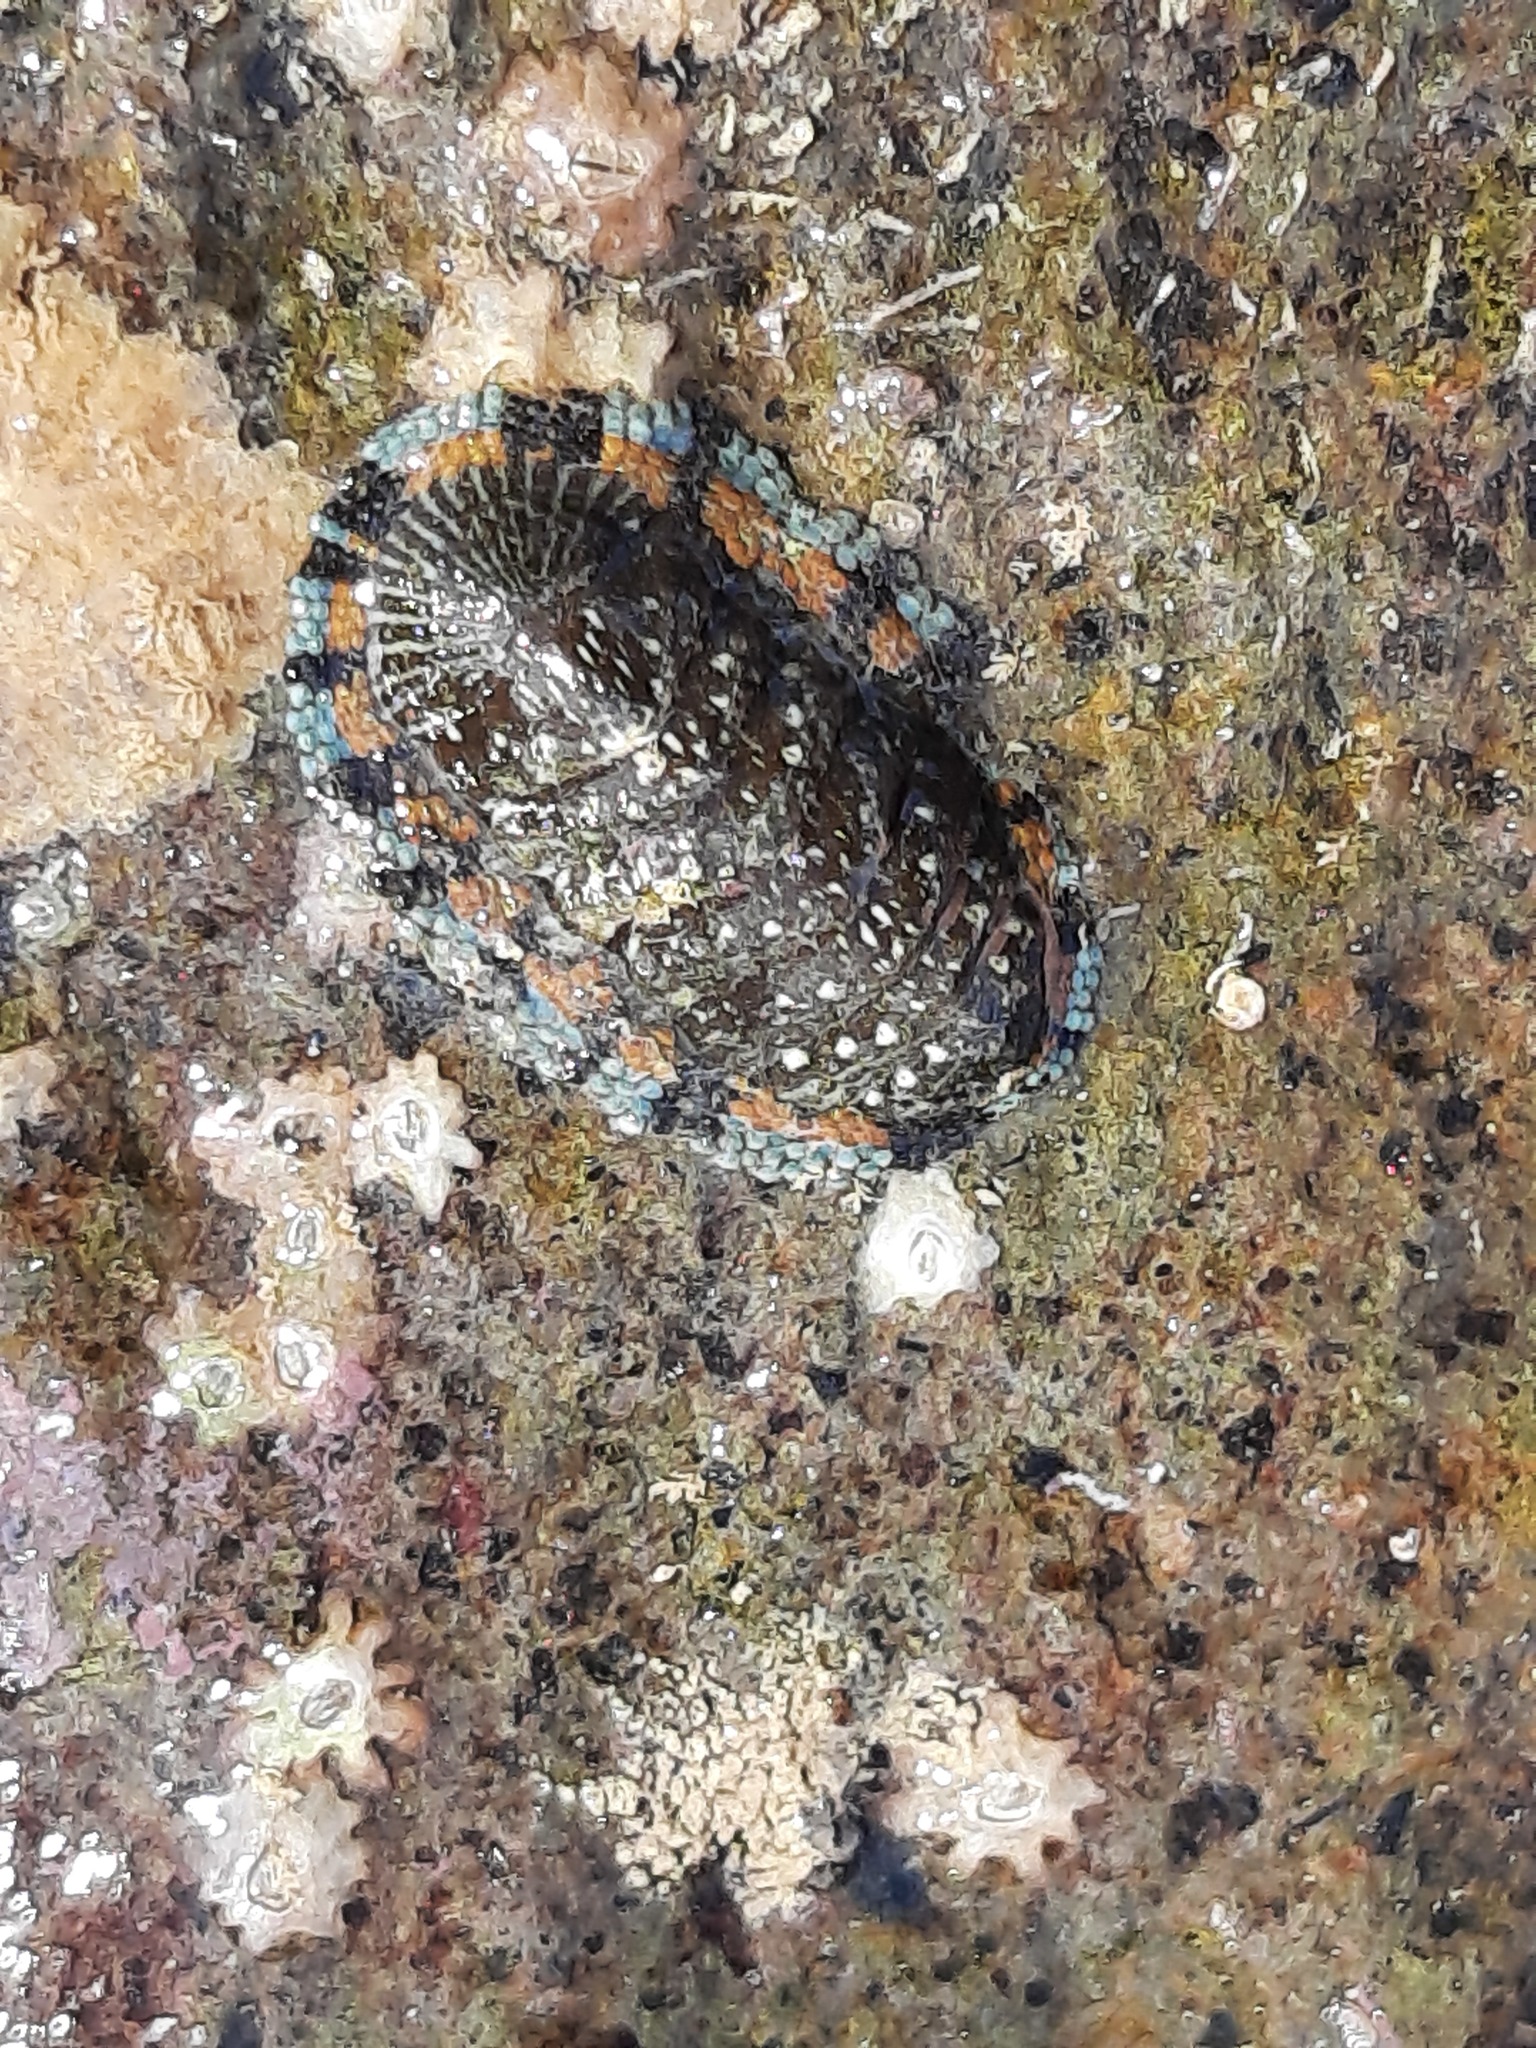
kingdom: Animalia
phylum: Mollusca
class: Polyplacophora
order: Chitonida
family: Chitonidae
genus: Sypharochiton
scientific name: Sypharochiton sinclairi
